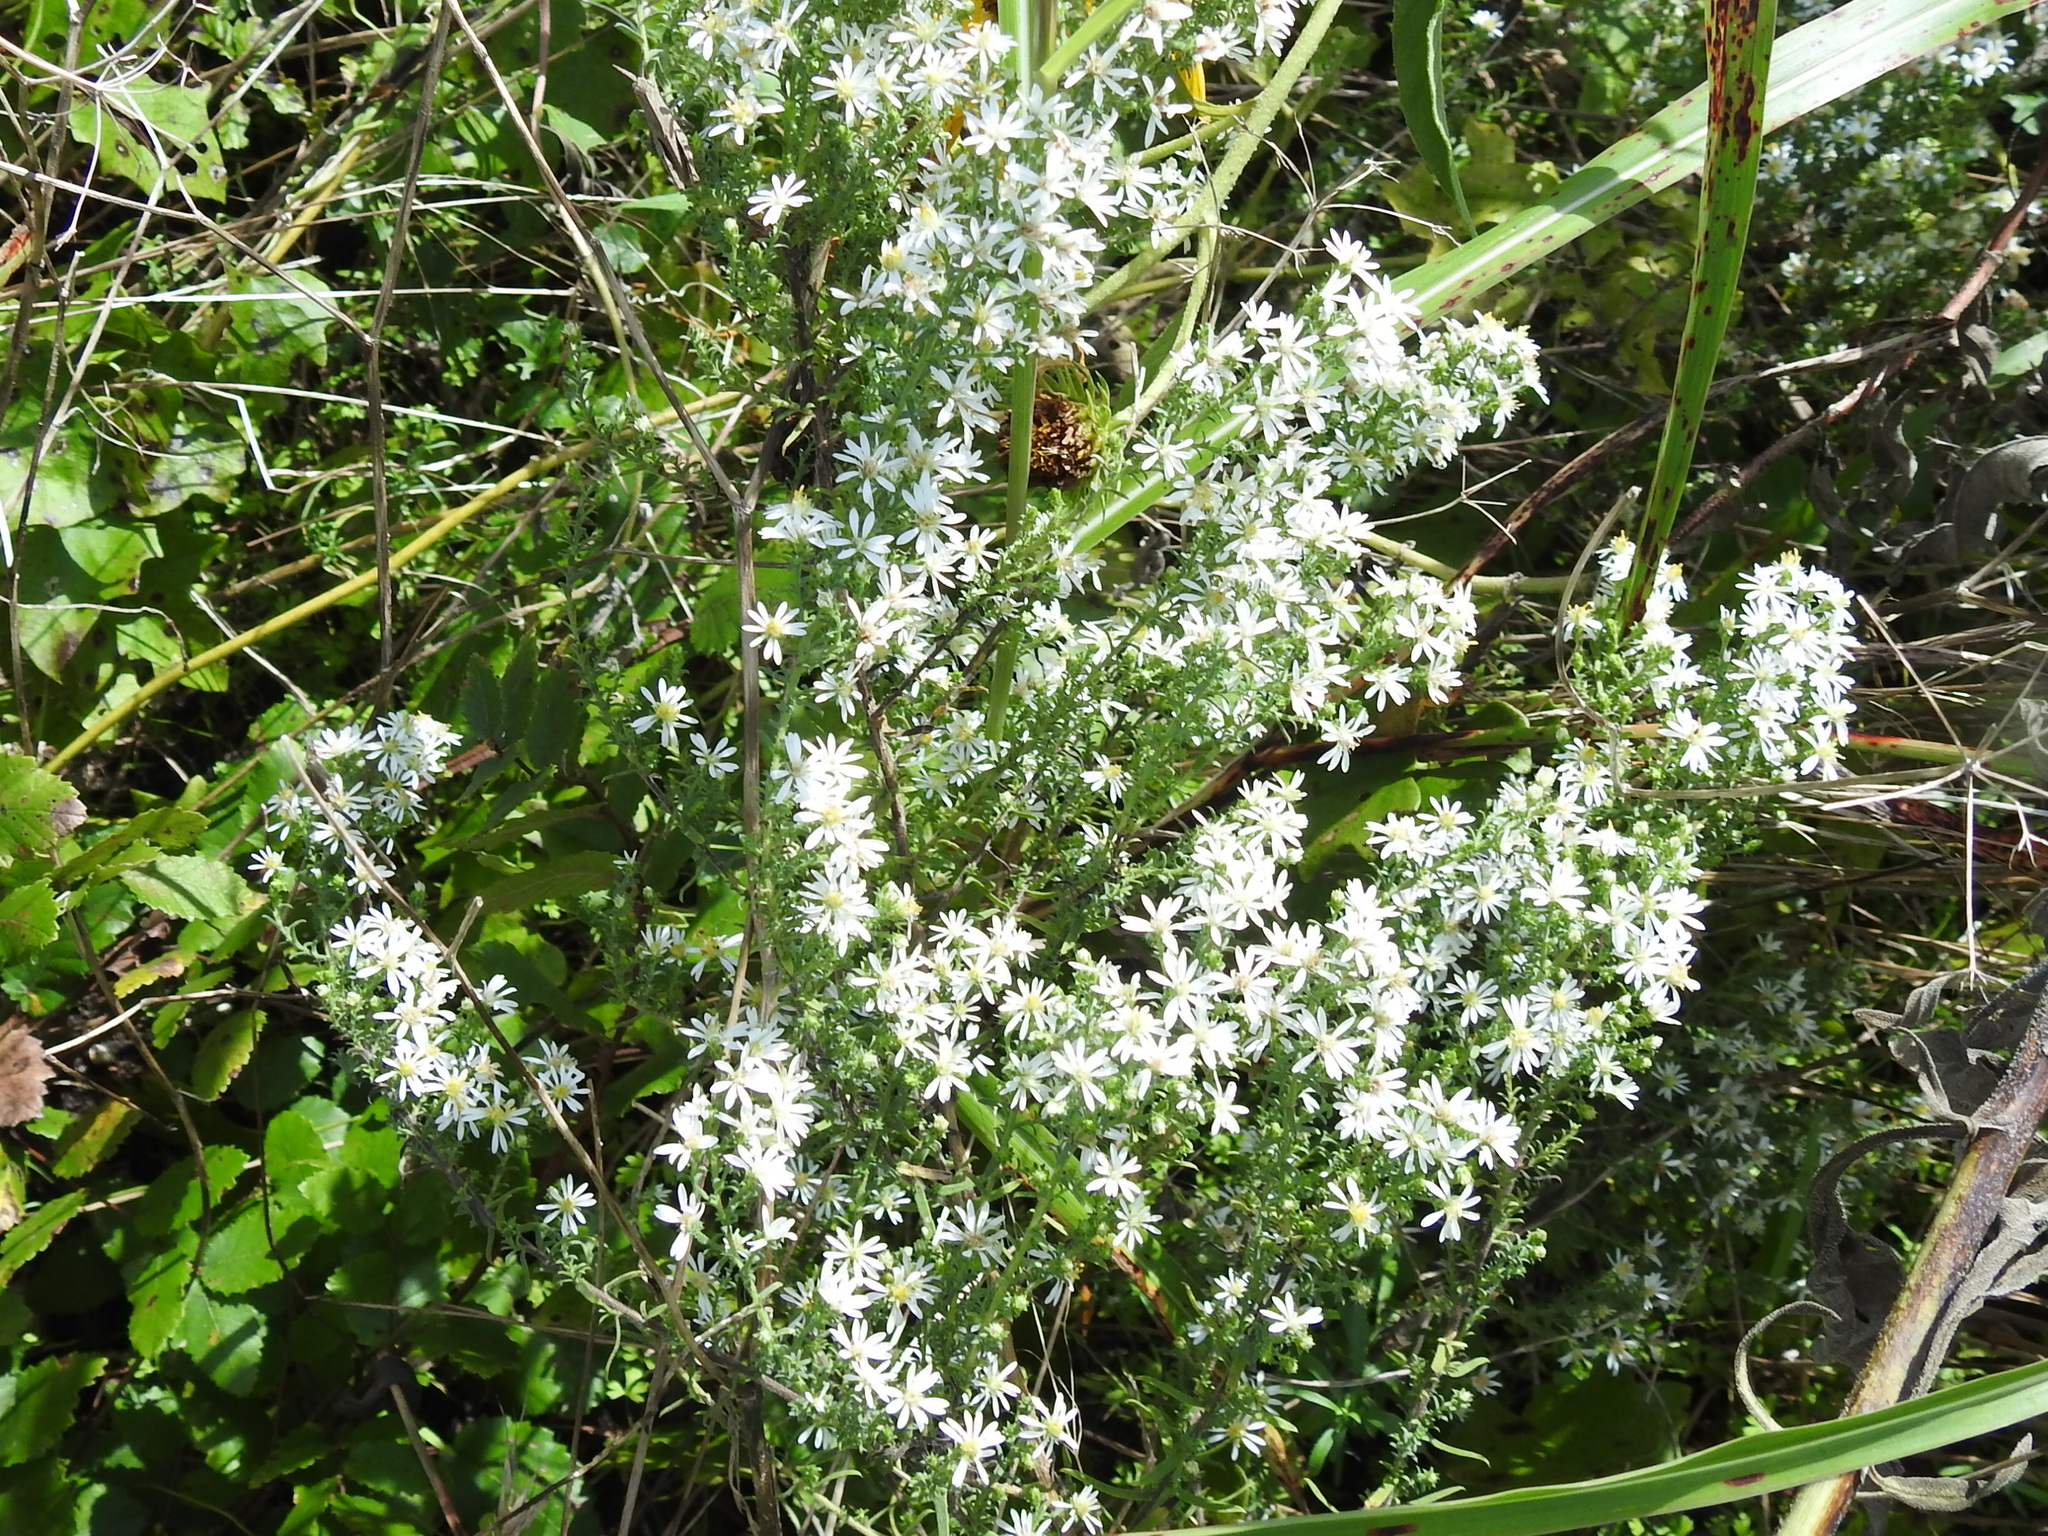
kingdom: Plantae
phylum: Tracheophyta
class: Magnoliopsida
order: Asterales
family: Asteraceae
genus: Symphyotrichum
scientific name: Symphyotrichum ericoides
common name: Heath aster
